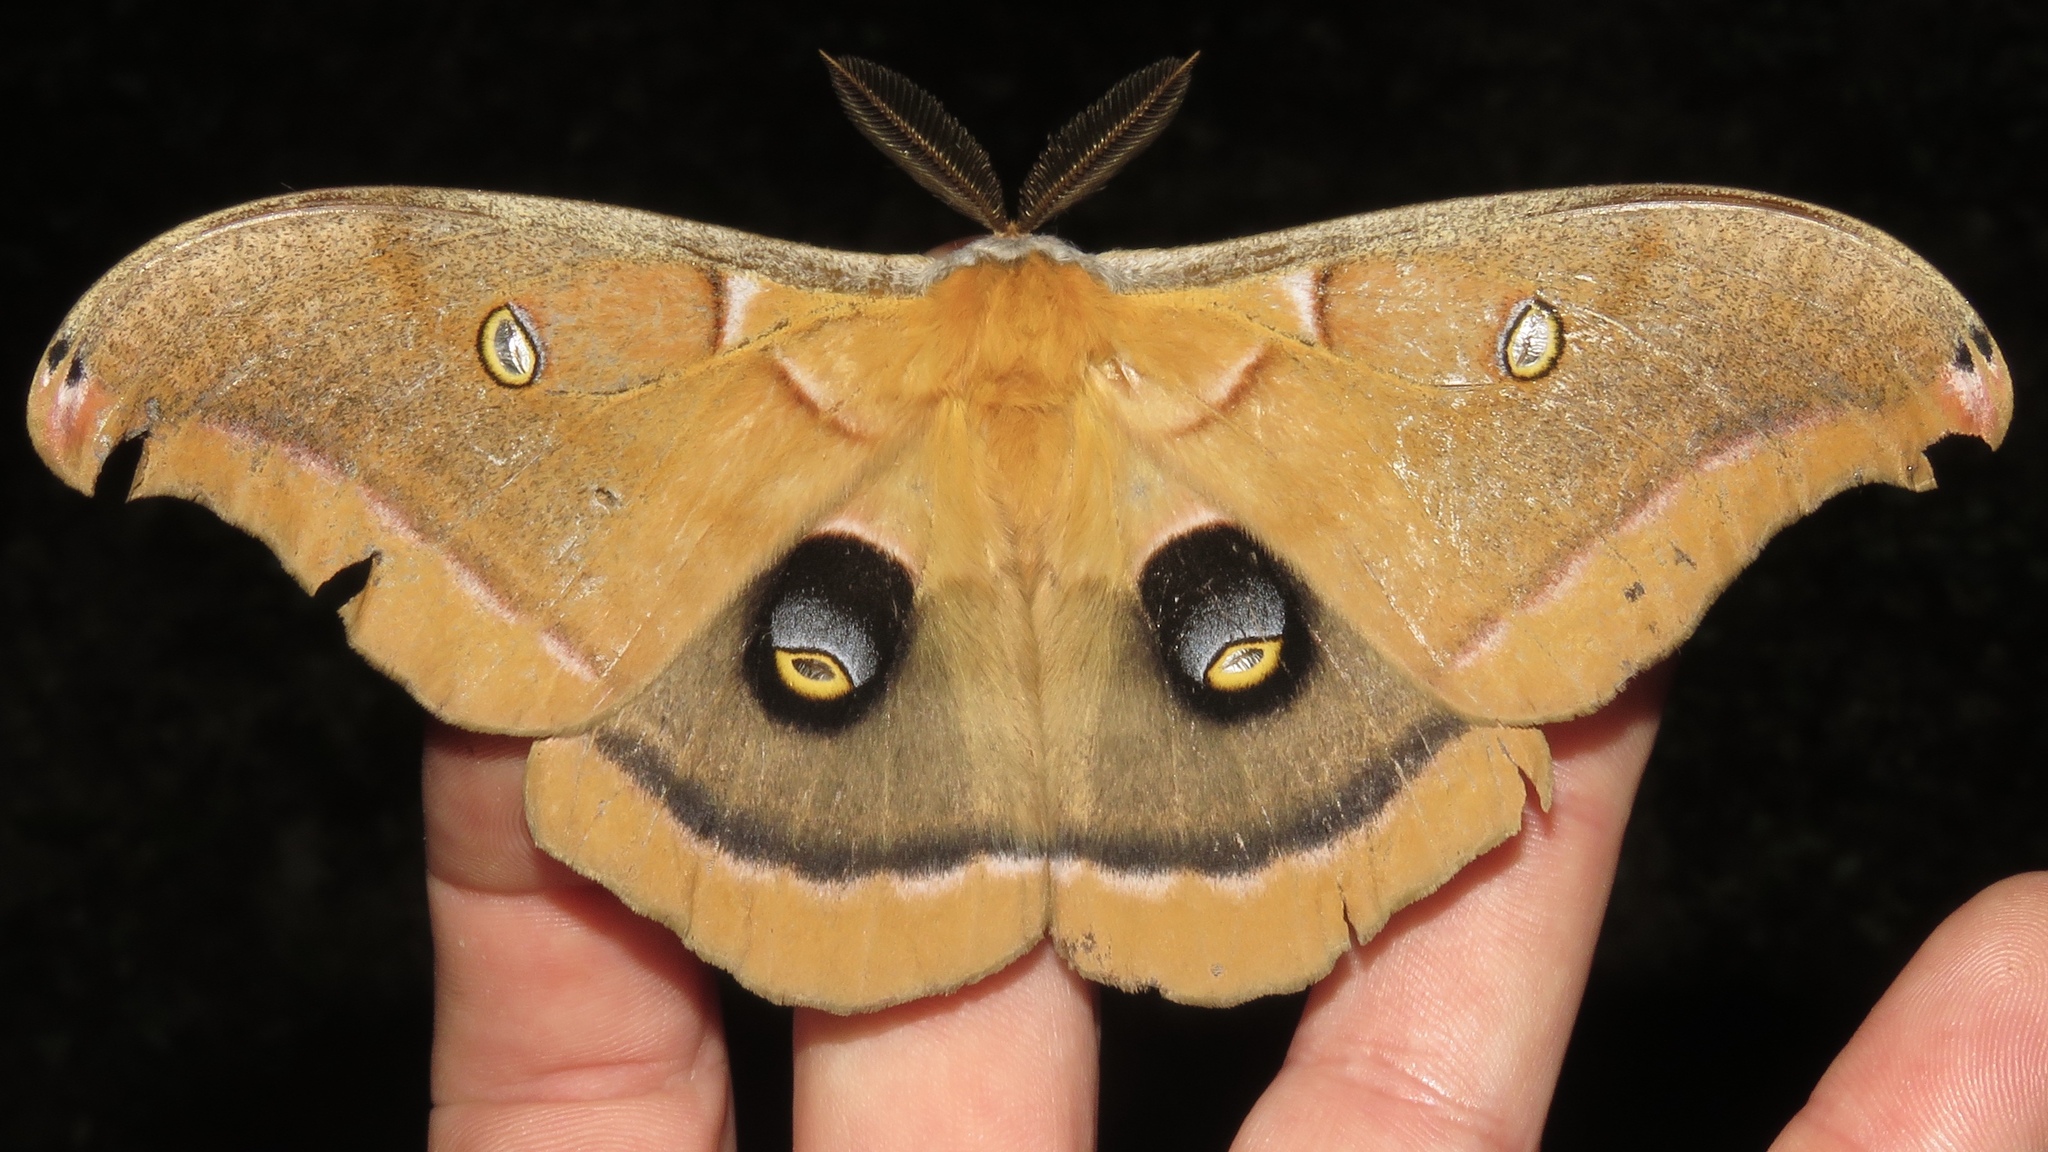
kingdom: Animalia
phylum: Arthropoda
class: Insecta
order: Lepidoptera
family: Saturniidae
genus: Antheraea
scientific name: Antheraea polyphemus
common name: Polyphemus moth
